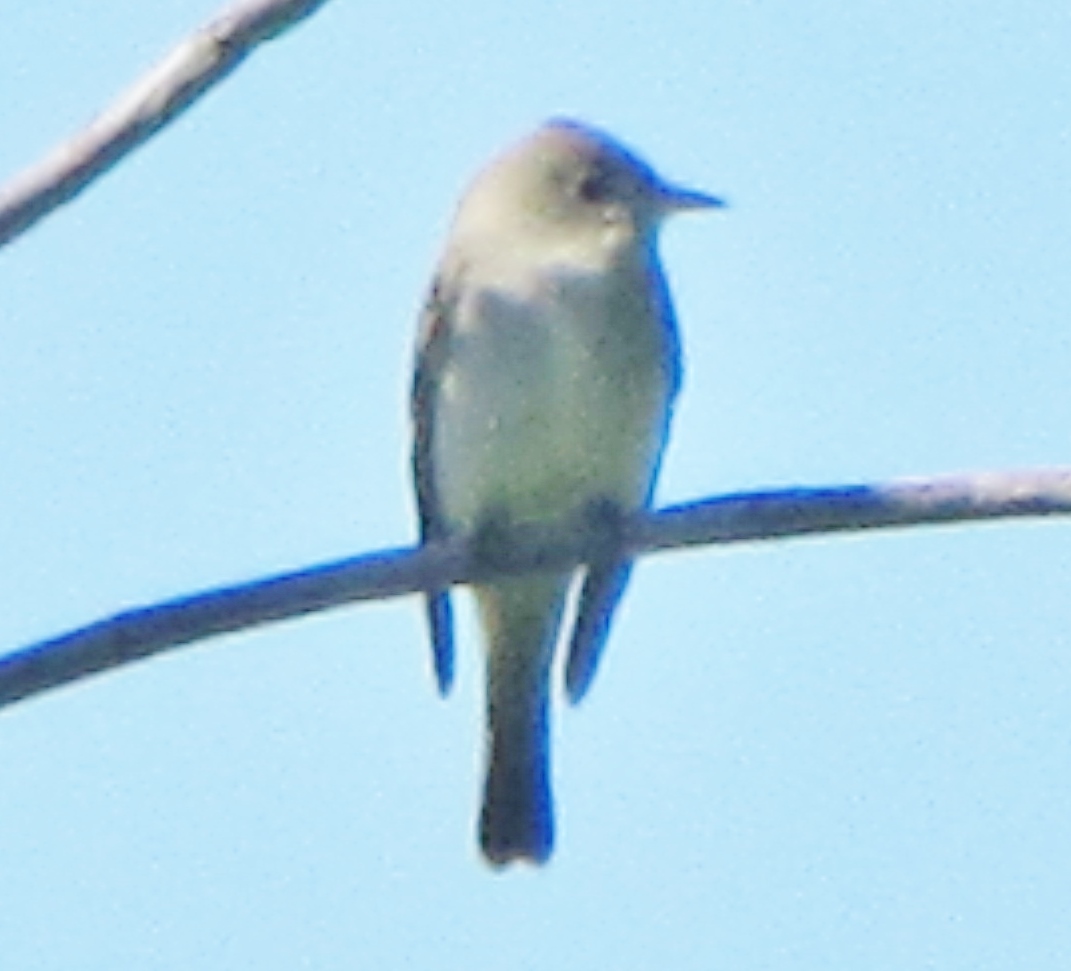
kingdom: Animalia
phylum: Chordata
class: Aves
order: Passeriformes
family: Tyrannidae
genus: Contopus
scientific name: Contopus virens
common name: Eastern wood-pewee
